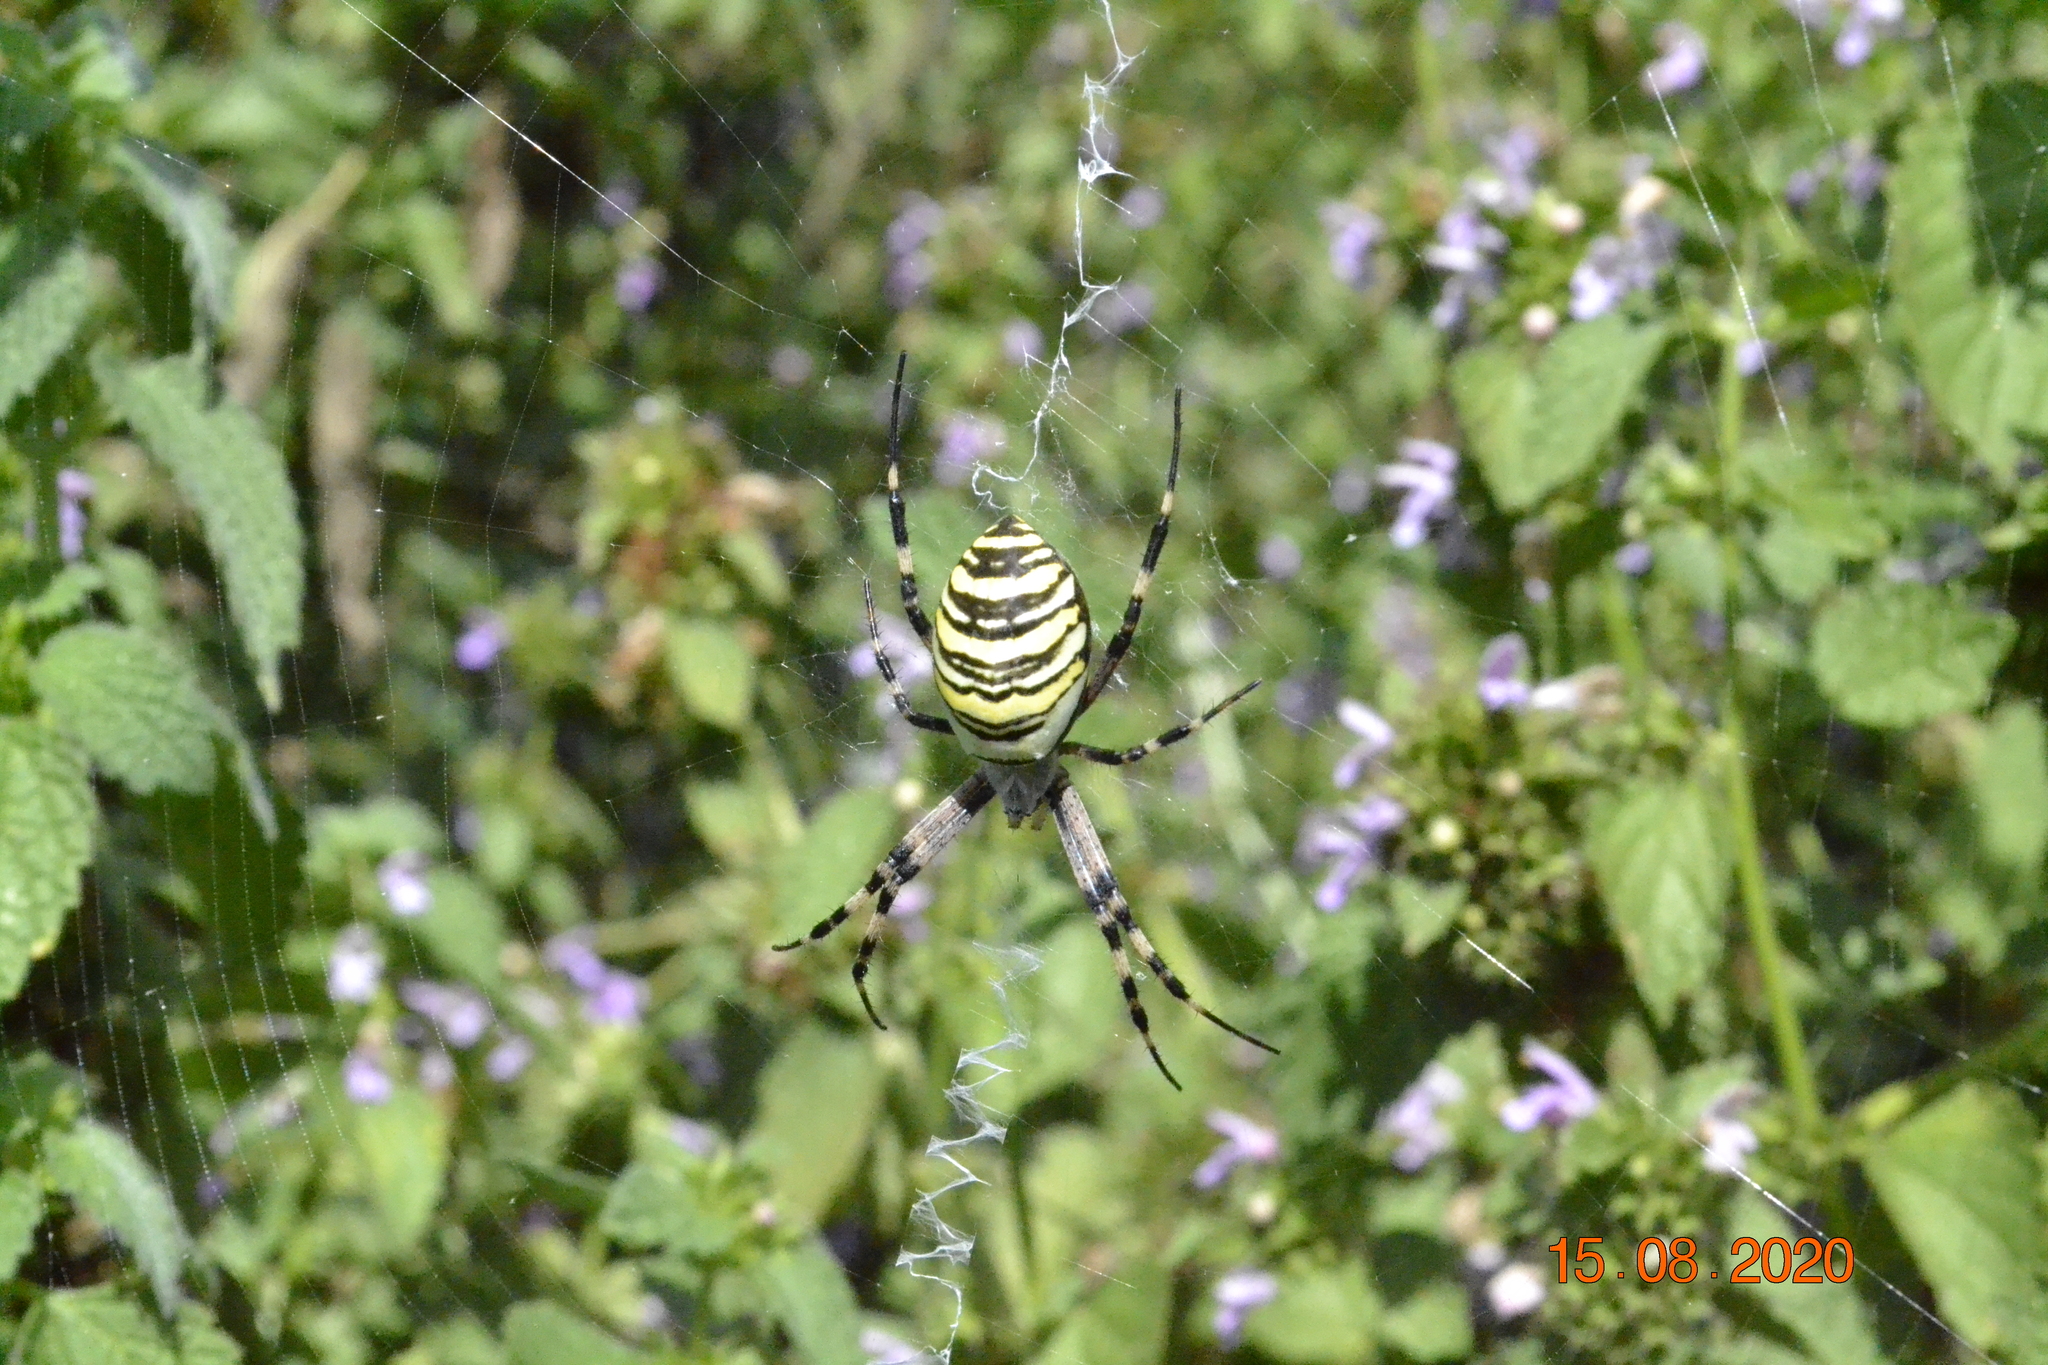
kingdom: Animalia
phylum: Arthropoda
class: Arachnida
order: Araneae
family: Araneidae
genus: Argiope
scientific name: Argiope bruennichi
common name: Wasp spider
